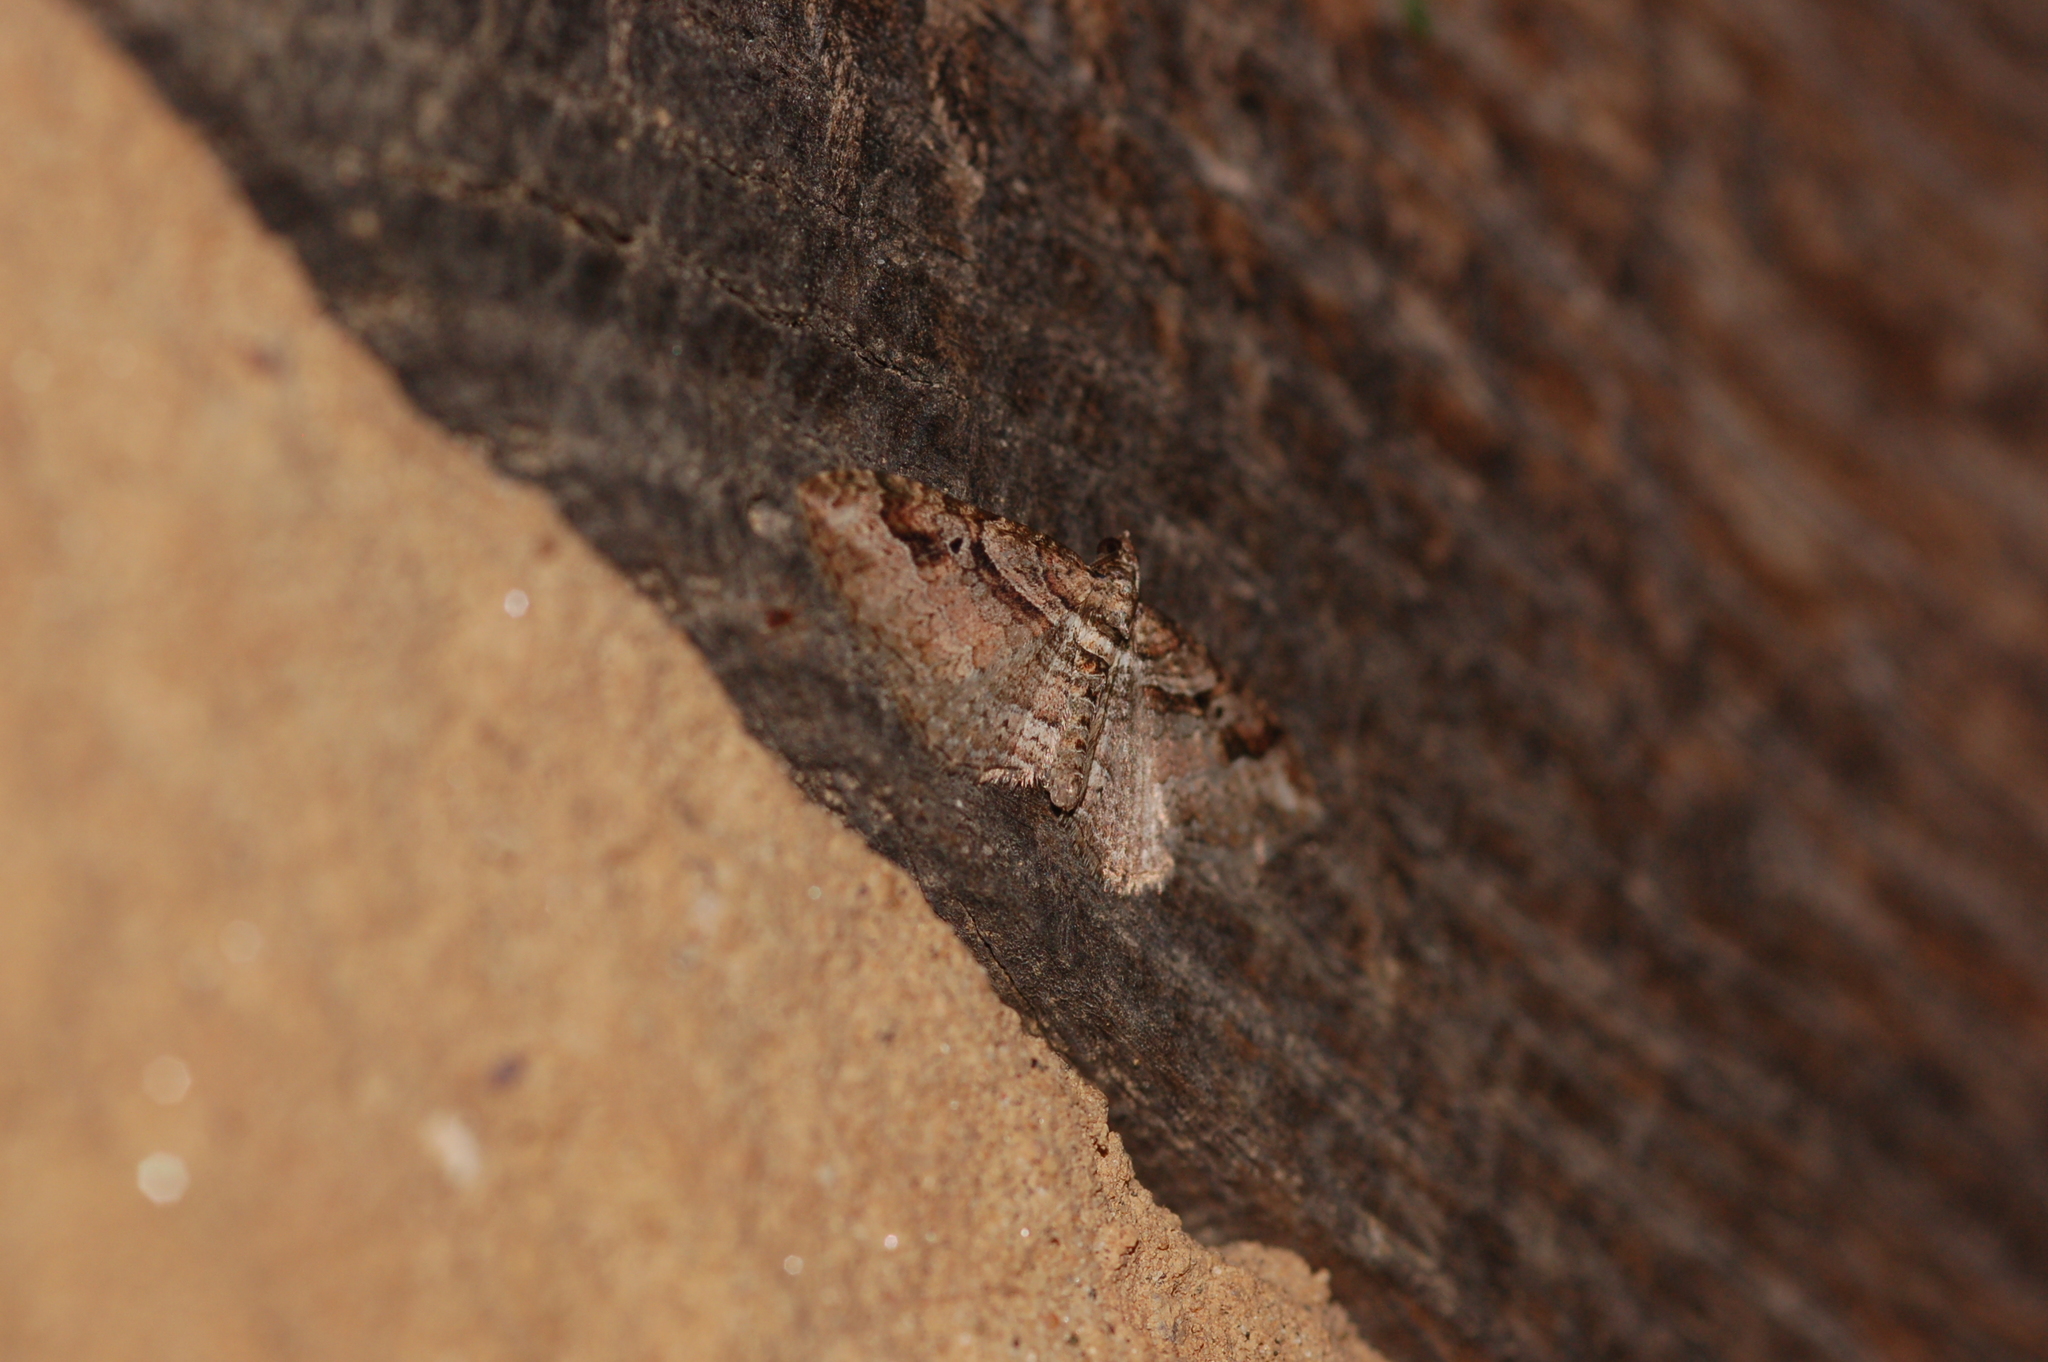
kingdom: Animalia
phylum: Arthropoda
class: Insecta
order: Lepidoptera
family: Geometridae
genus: Costaconvexa
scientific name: Costaconvexa centrostrigaria
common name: Bent-line carpet
